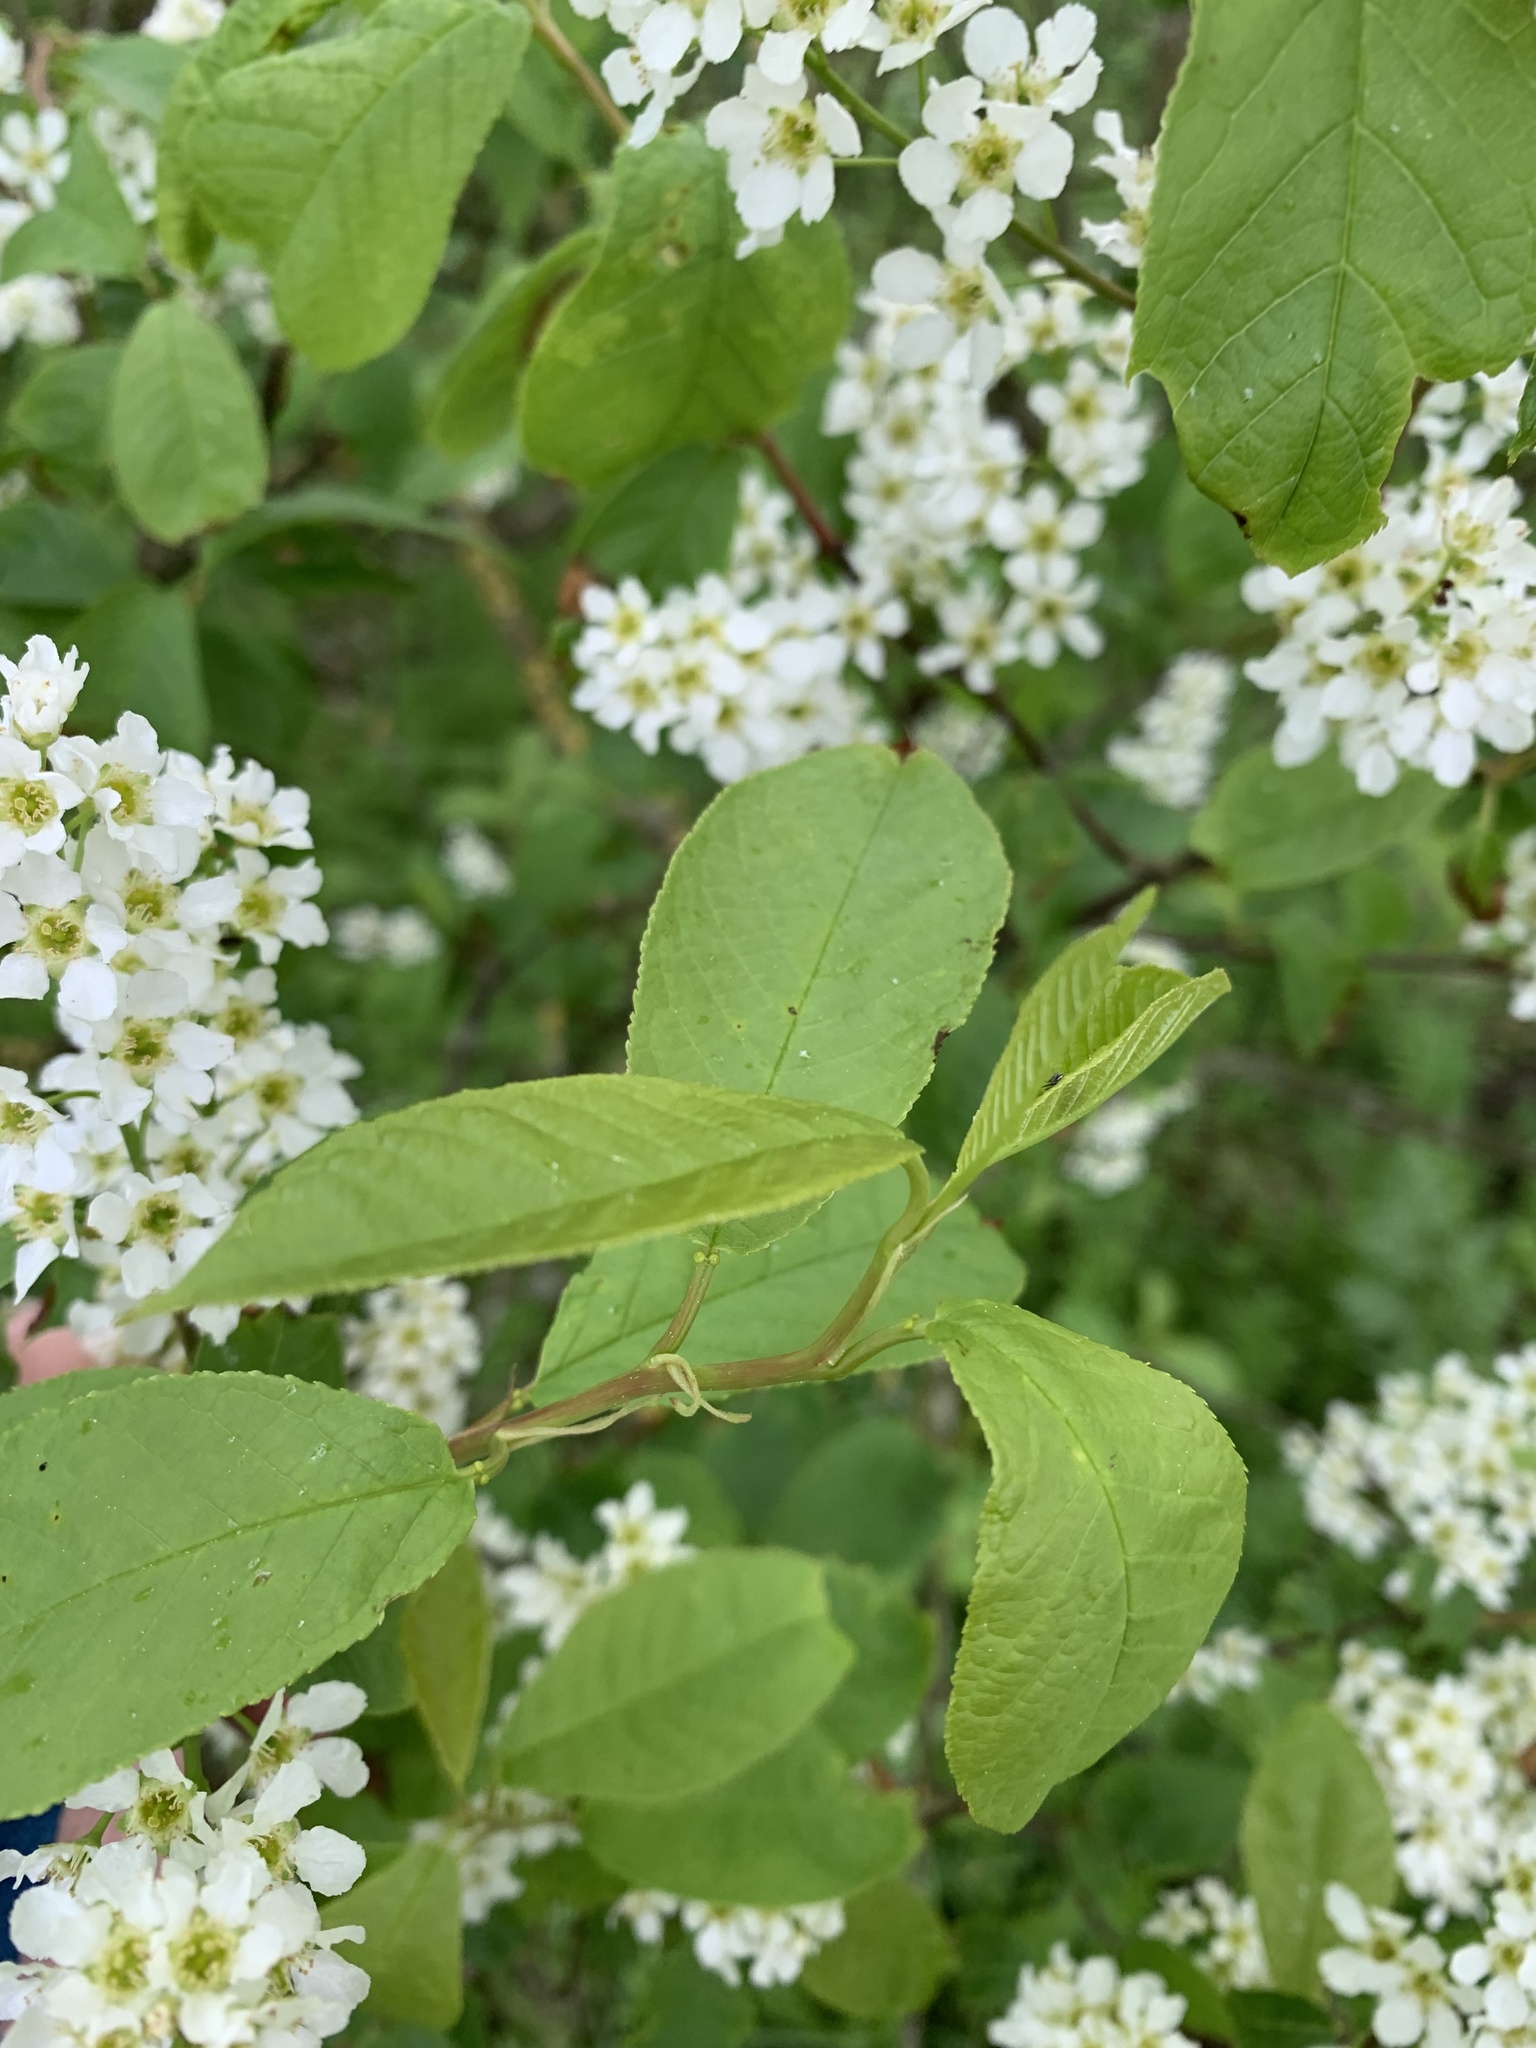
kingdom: Plantae
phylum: Tracheophyta
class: Magnoliopsida
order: Rosales
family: Rosaceae
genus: Prunus
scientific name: Prunus padus
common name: Bird cherry
